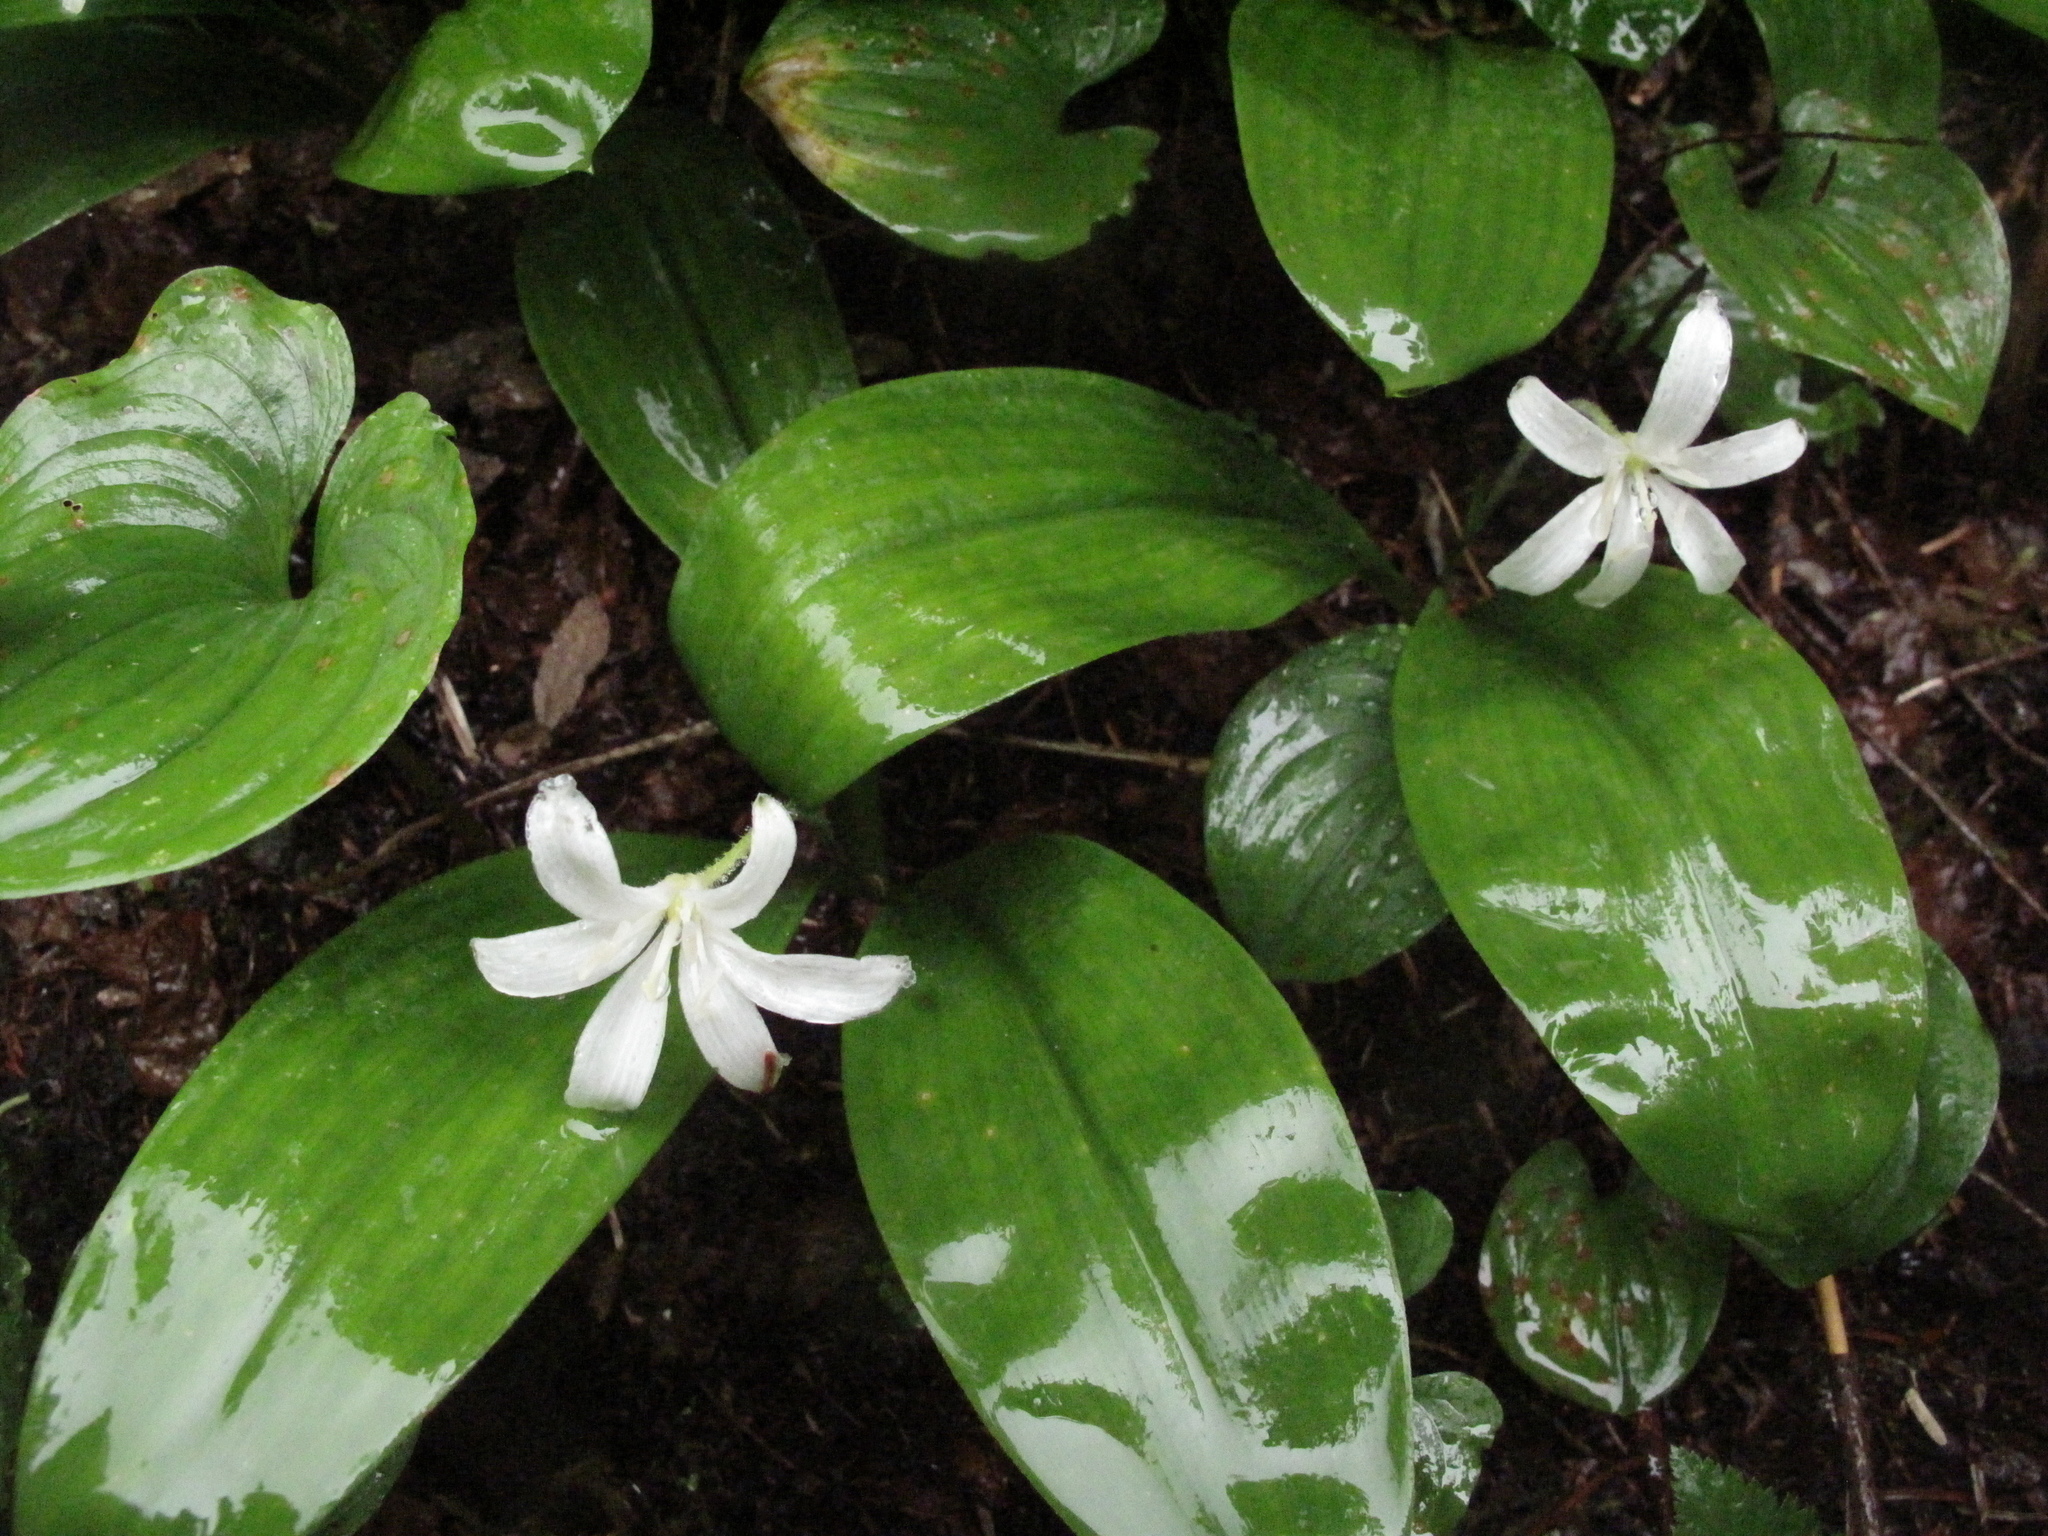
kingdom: Plantae
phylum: Tracheophyta
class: Liliopsida
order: Liliales
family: Liliaceae
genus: Clintonia
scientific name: Clintonia uniflora
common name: Queen's cup
